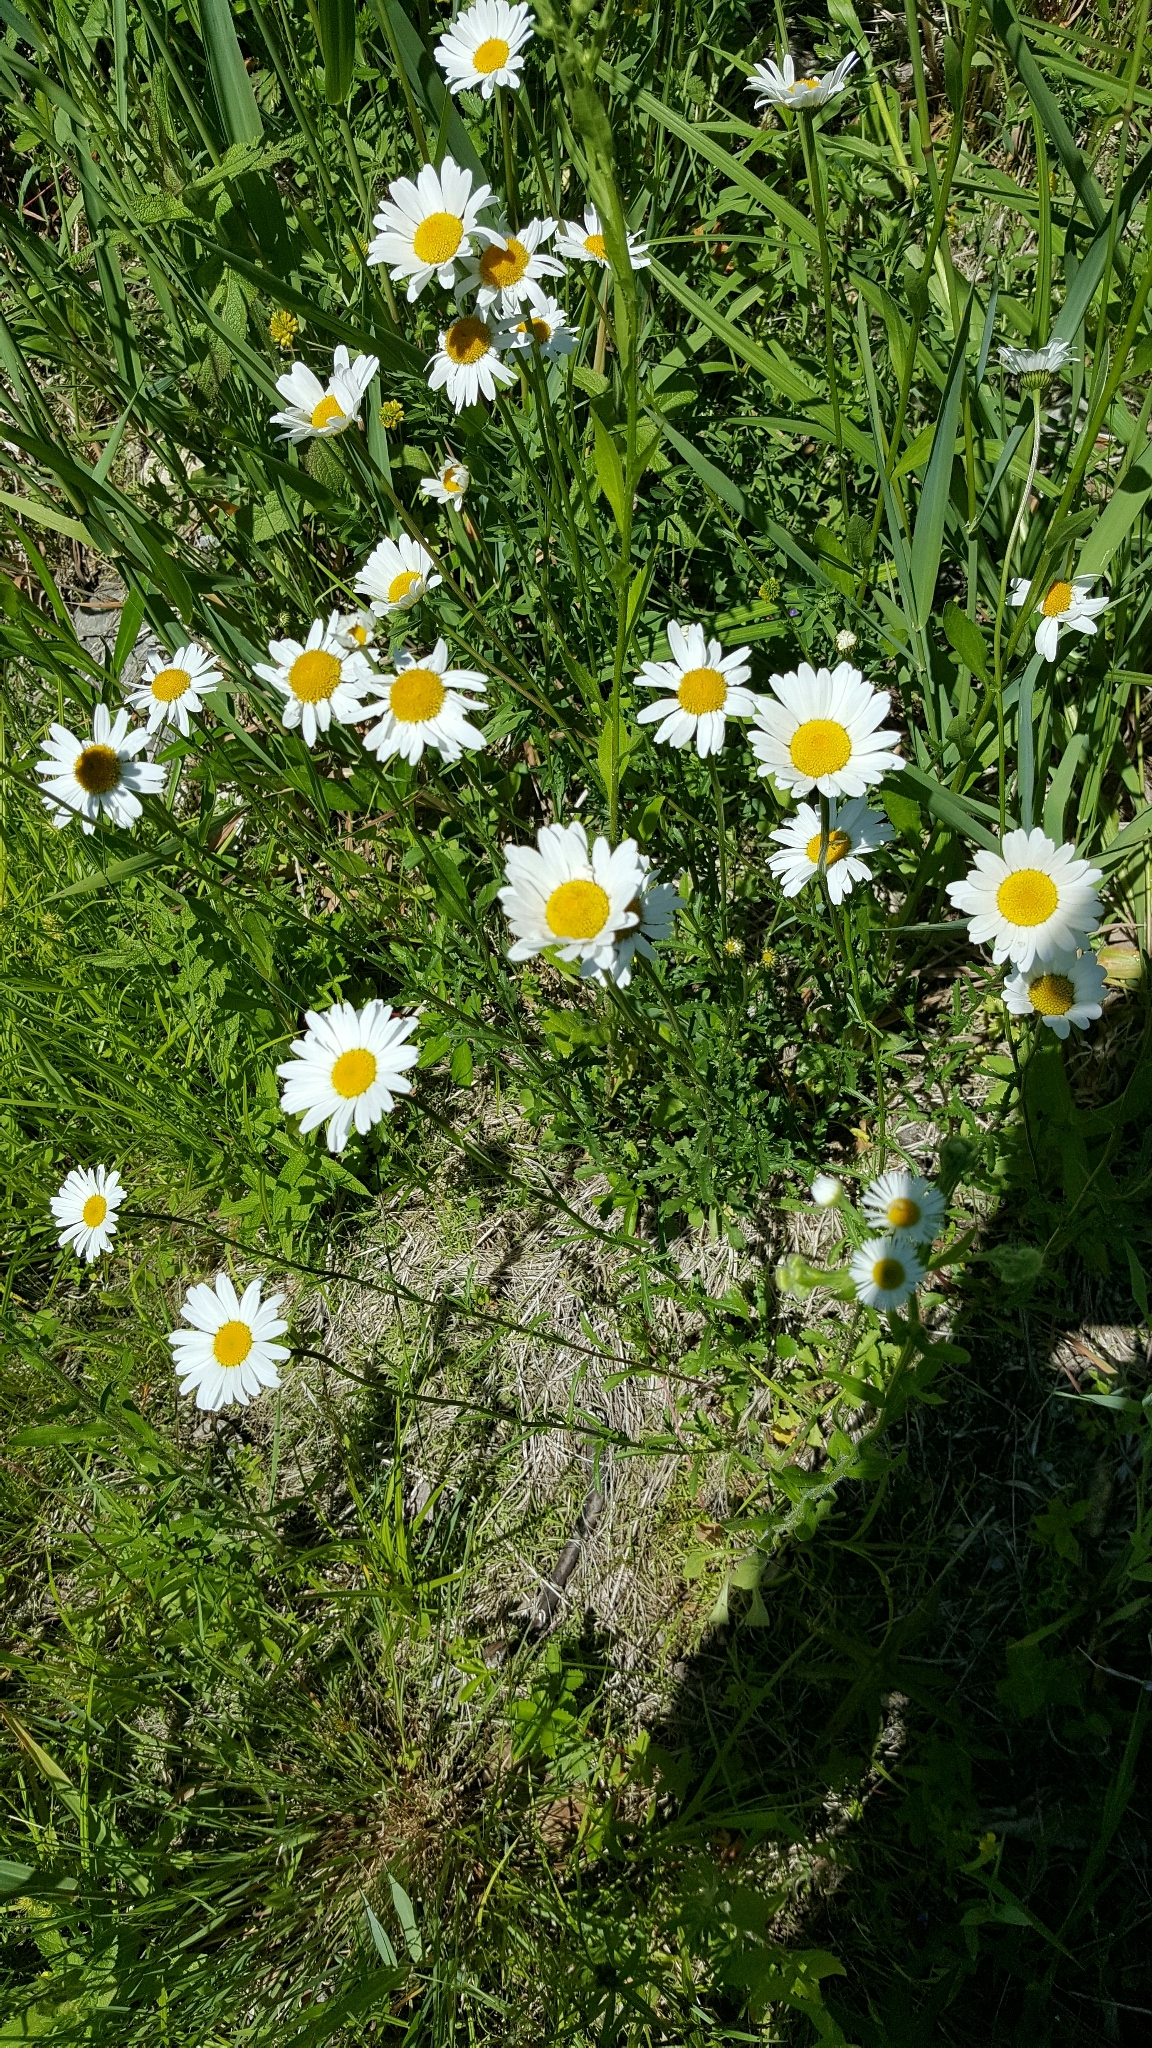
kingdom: Plantae
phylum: Tracheophyta
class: Magnoliopsida
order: Asterales
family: Asteraceae
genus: Leucanthemum
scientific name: Leucanthemum vulgare
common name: Oxeye daisy
